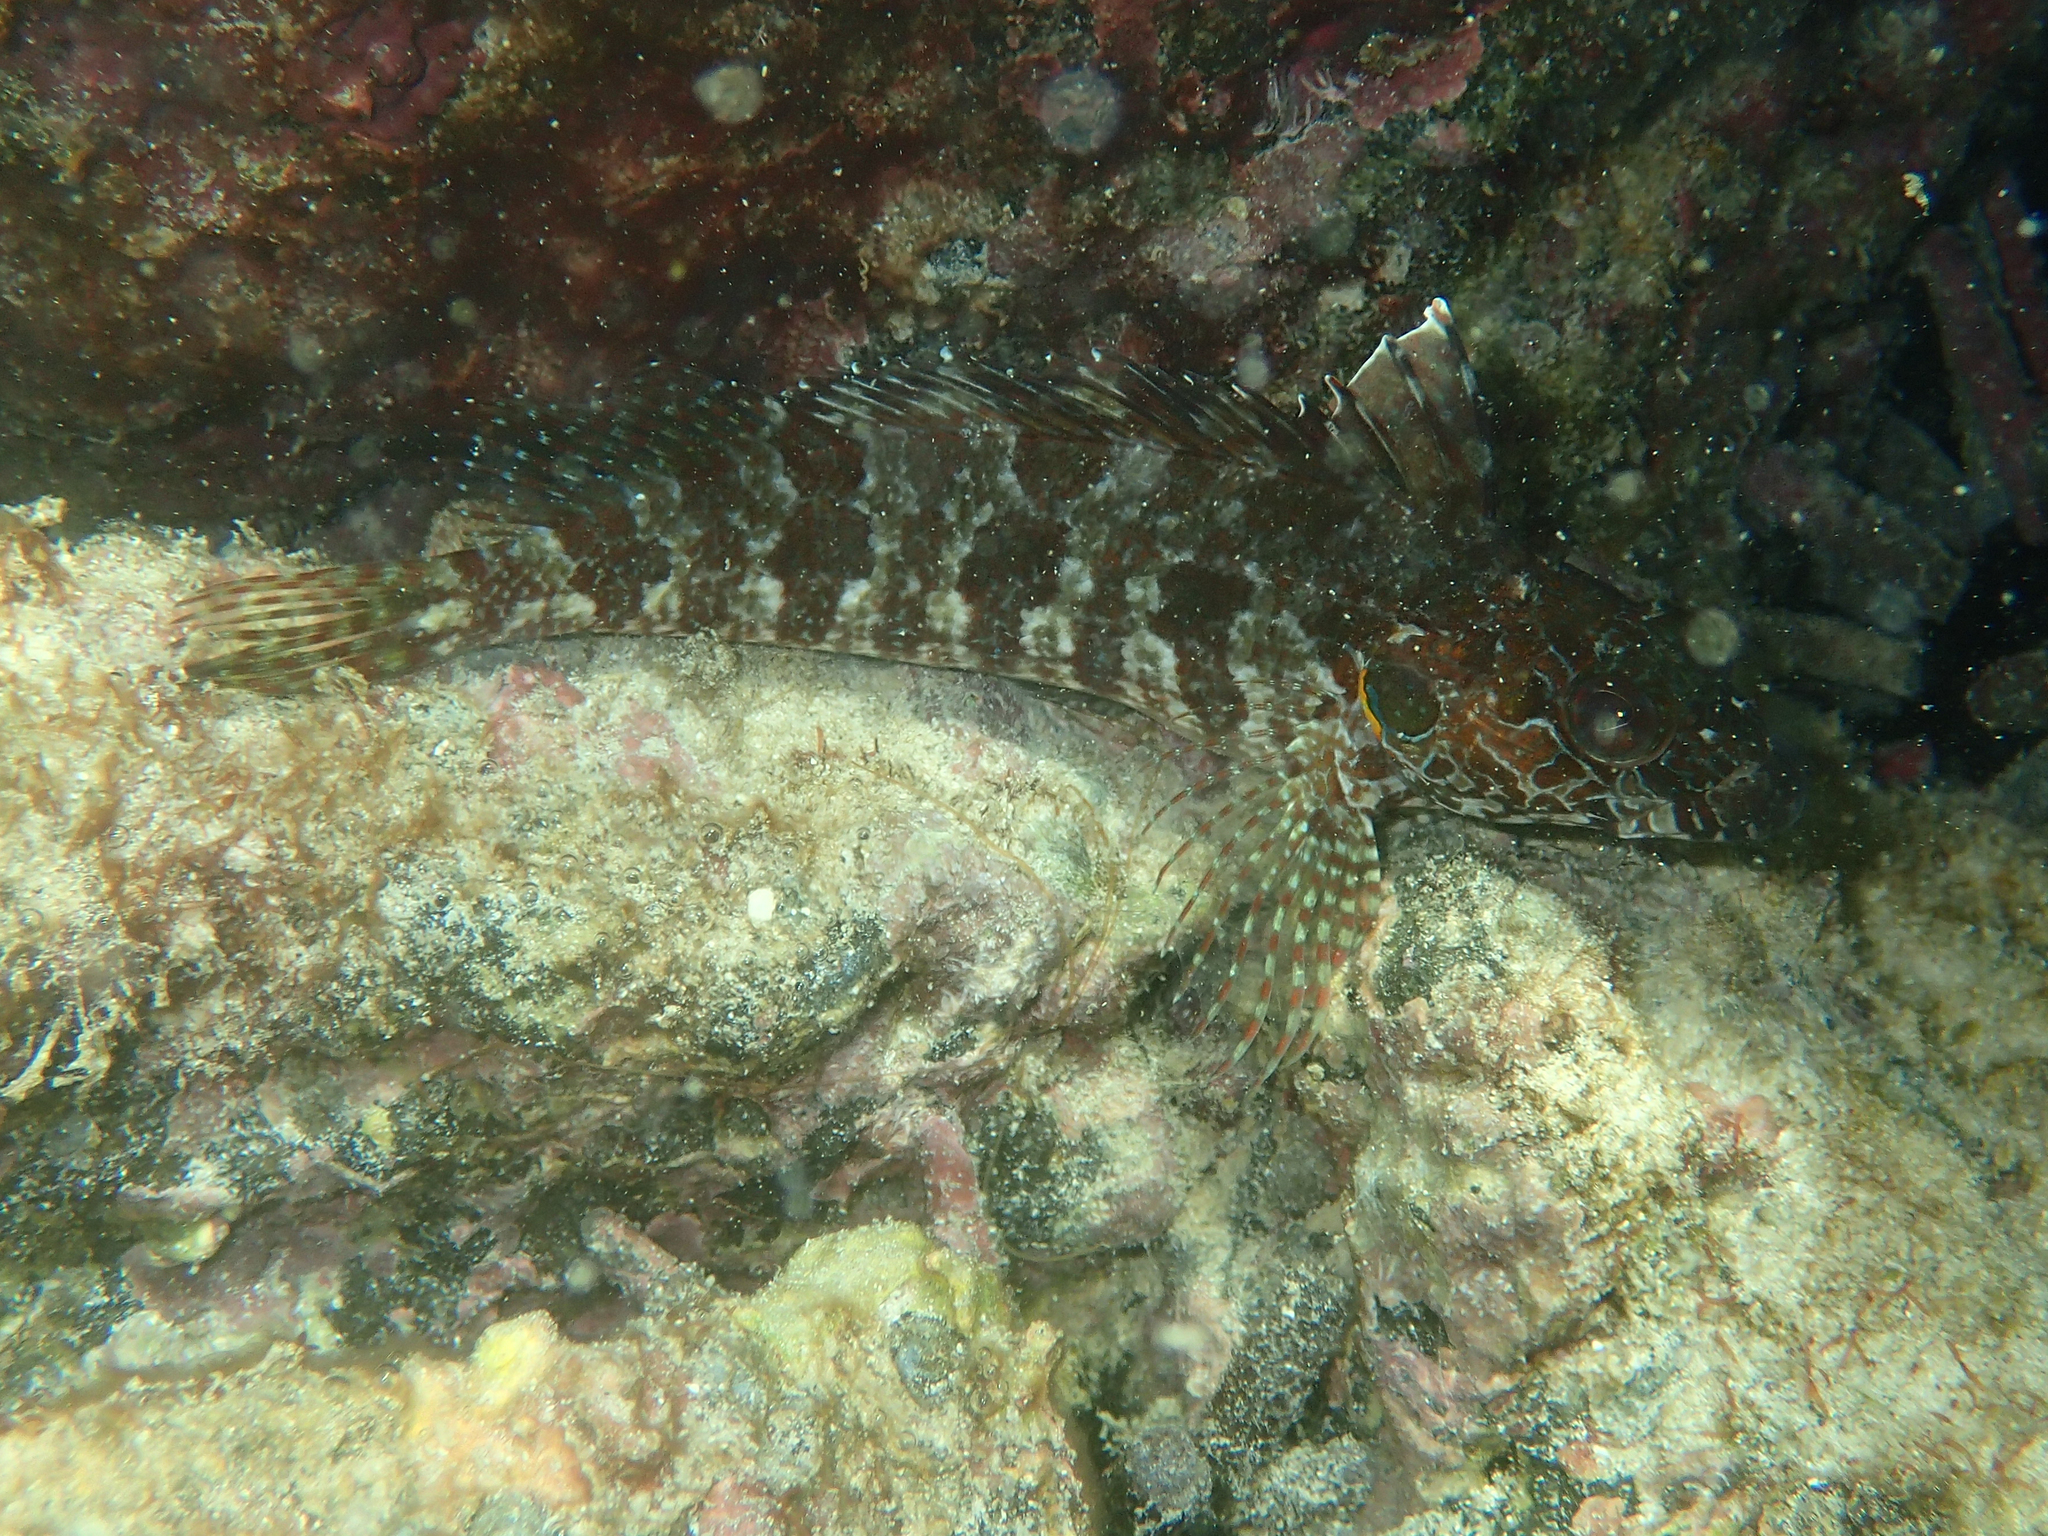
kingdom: Animalia
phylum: Chordata
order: Perciformes
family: Labrisomidae
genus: Gobioclinus
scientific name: Gobioclinus dendriticus
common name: Bravo clinid
